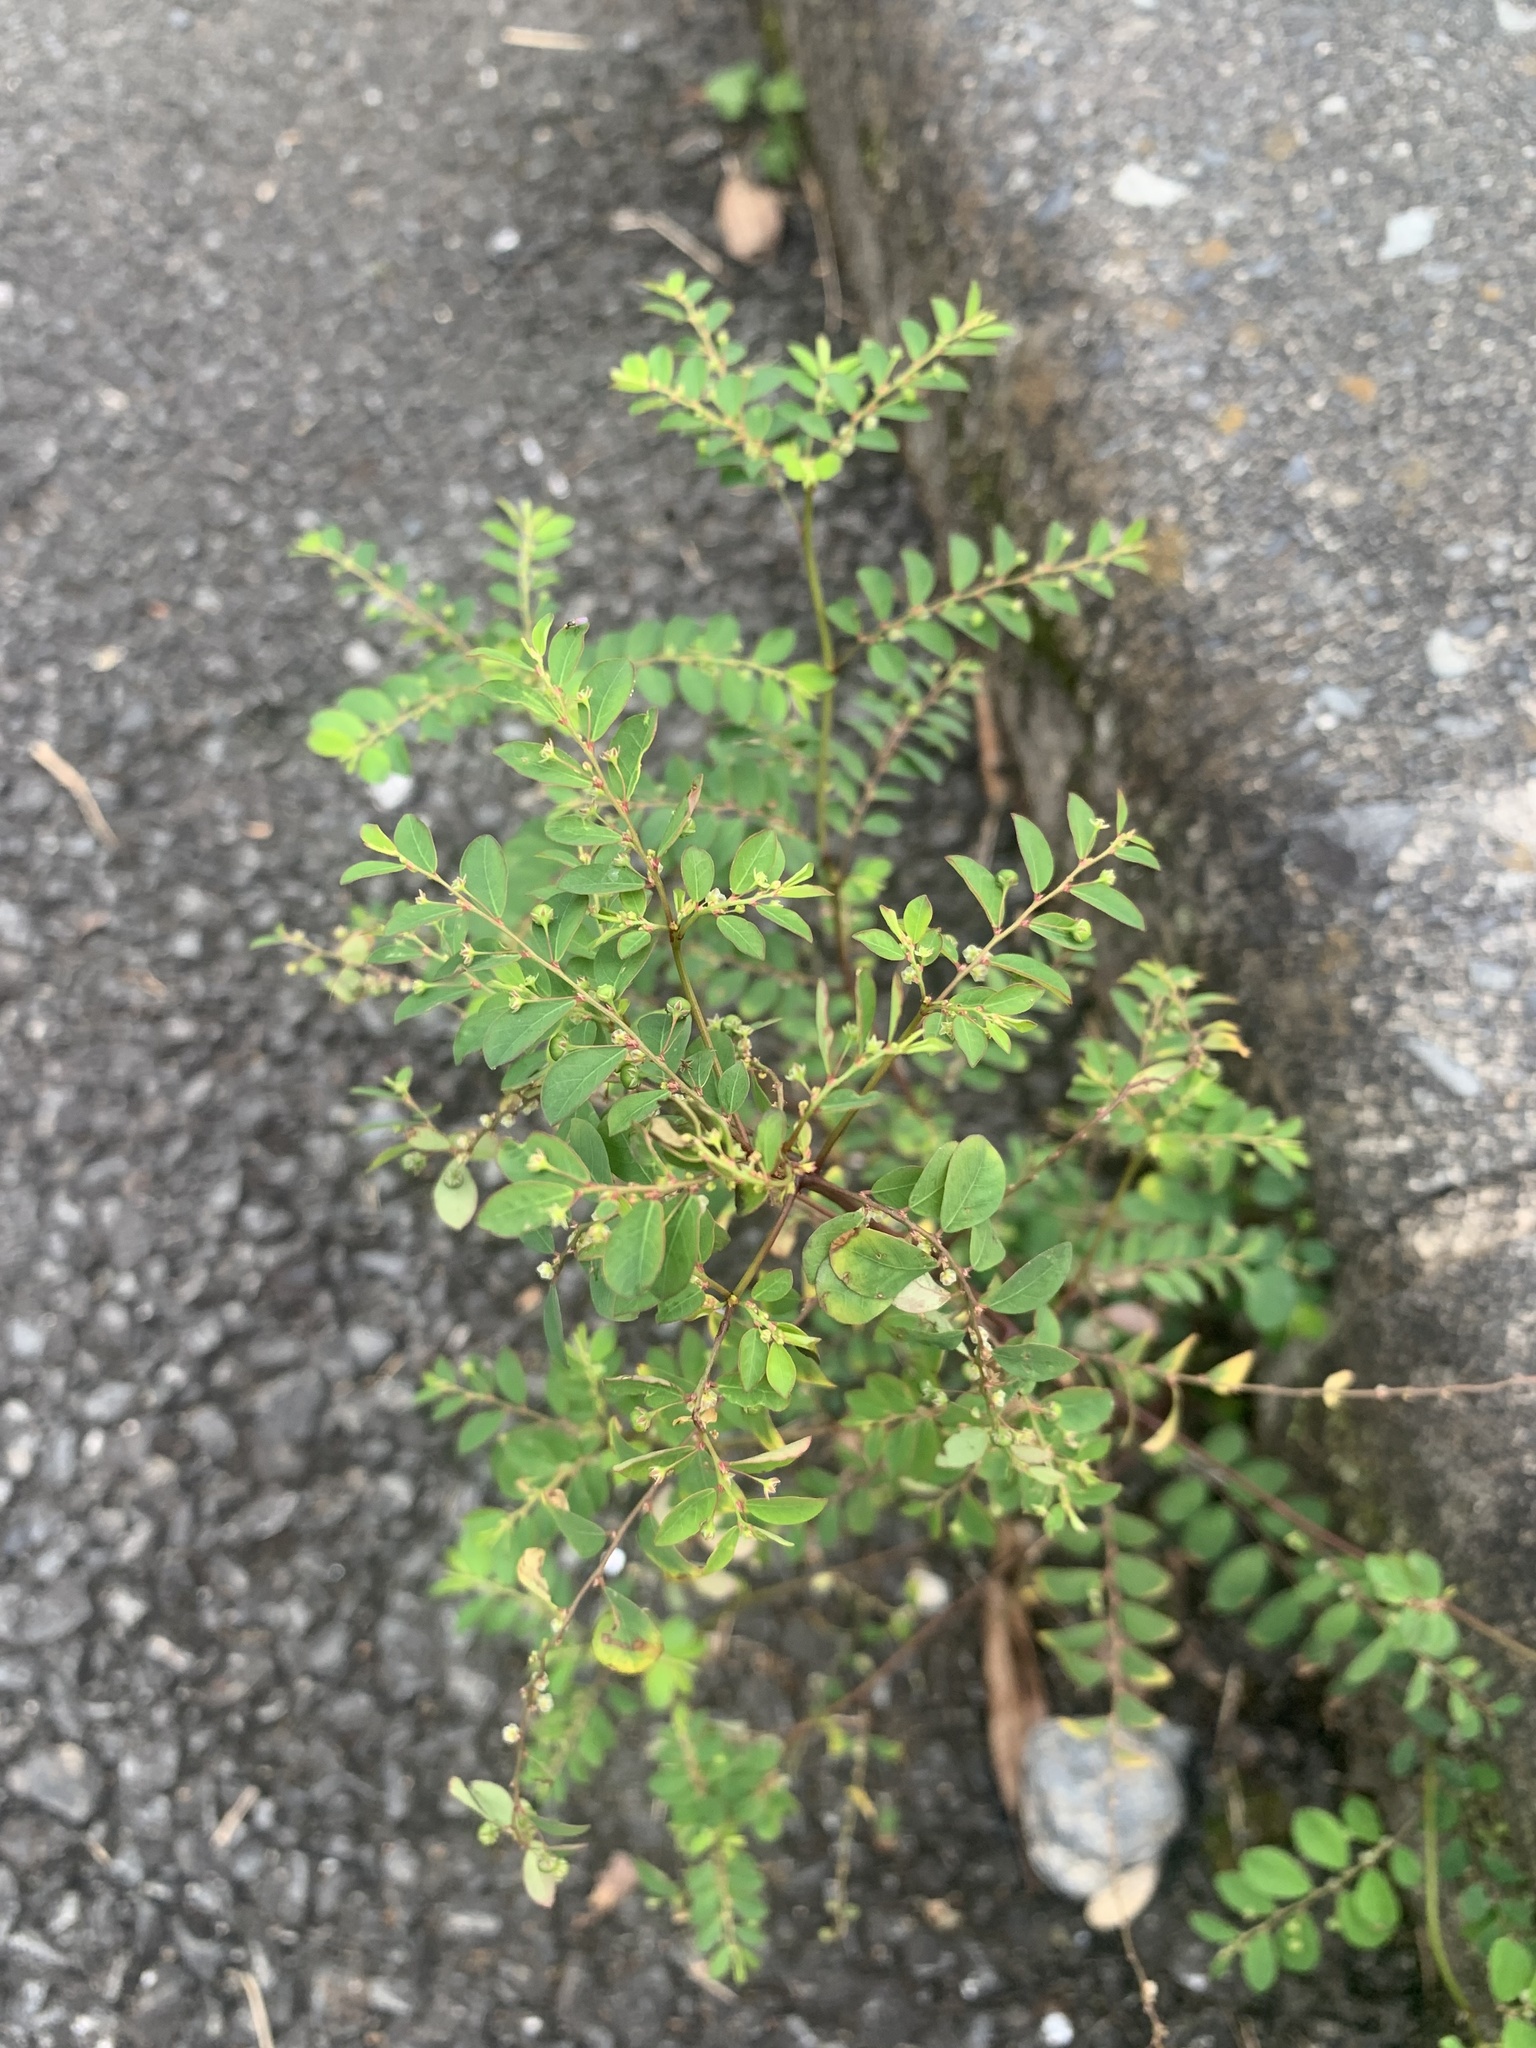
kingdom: Plantae
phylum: Tracheophyta
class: Magnoliopsida
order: Malpighiales
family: Phyllanthaceae
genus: Phyllanthus
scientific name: Phyllanthus tenellus
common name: Mascarene island leaf-flower
